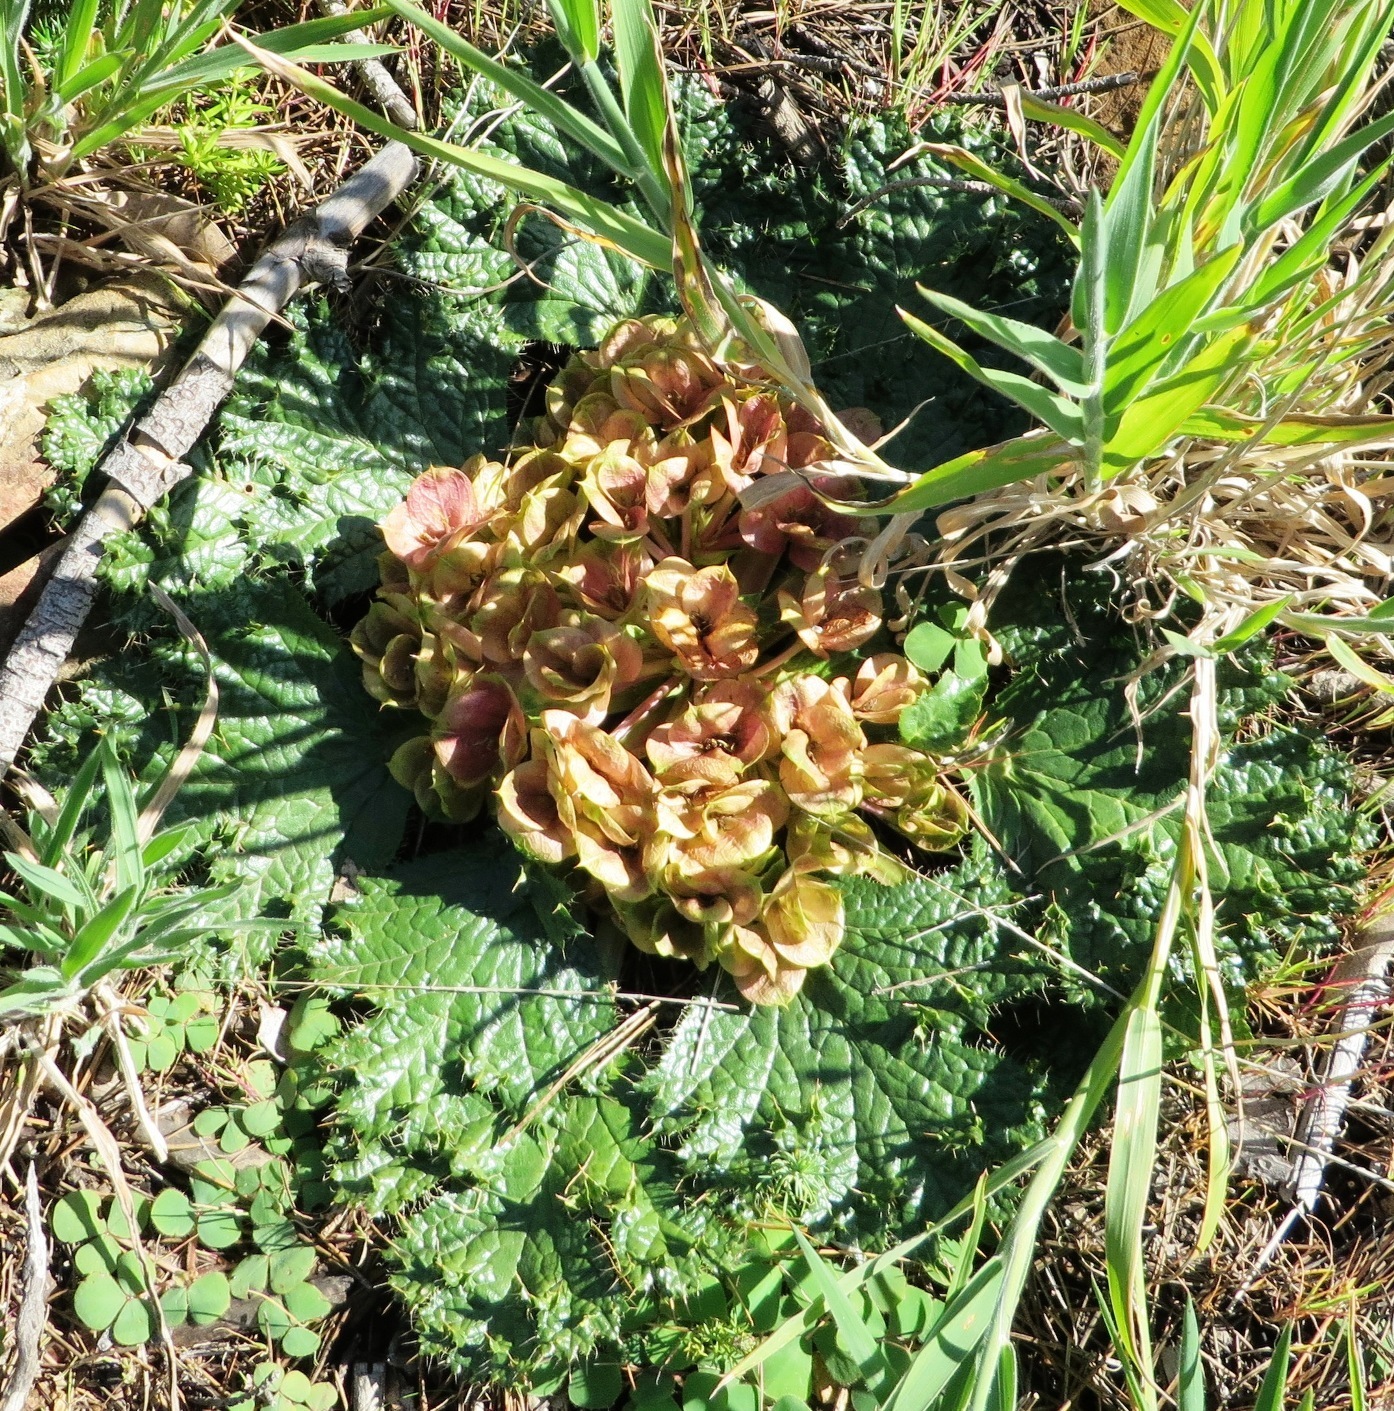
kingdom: Plantae
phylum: Tracheophyta
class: Magnoliopsida
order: Apiales
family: Apiaceae
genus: Arctopus
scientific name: Arctopus echinatus
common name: Platdoring
